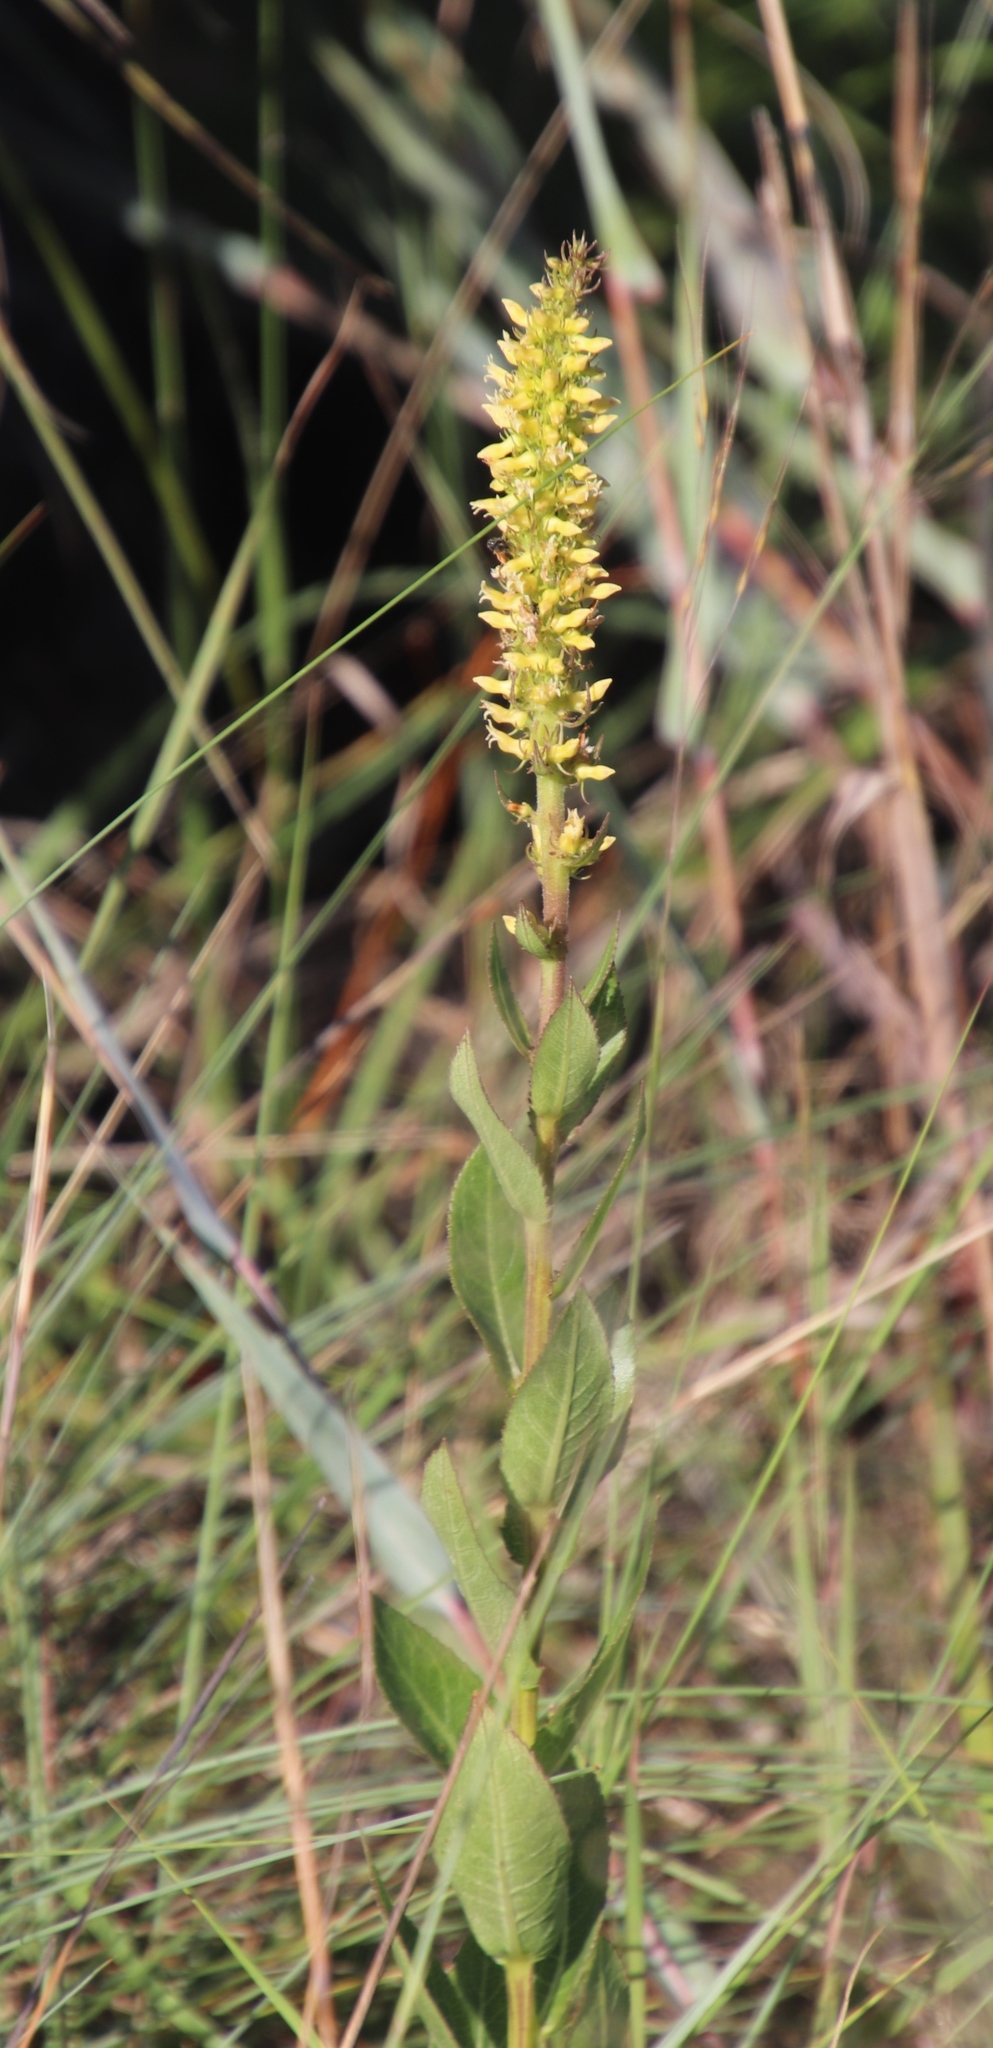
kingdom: Plantae
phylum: Tracheophyta
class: Magnoliopsida
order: Asterales
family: Campanulaceae
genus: Cyphia
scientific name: Cyphia elata
